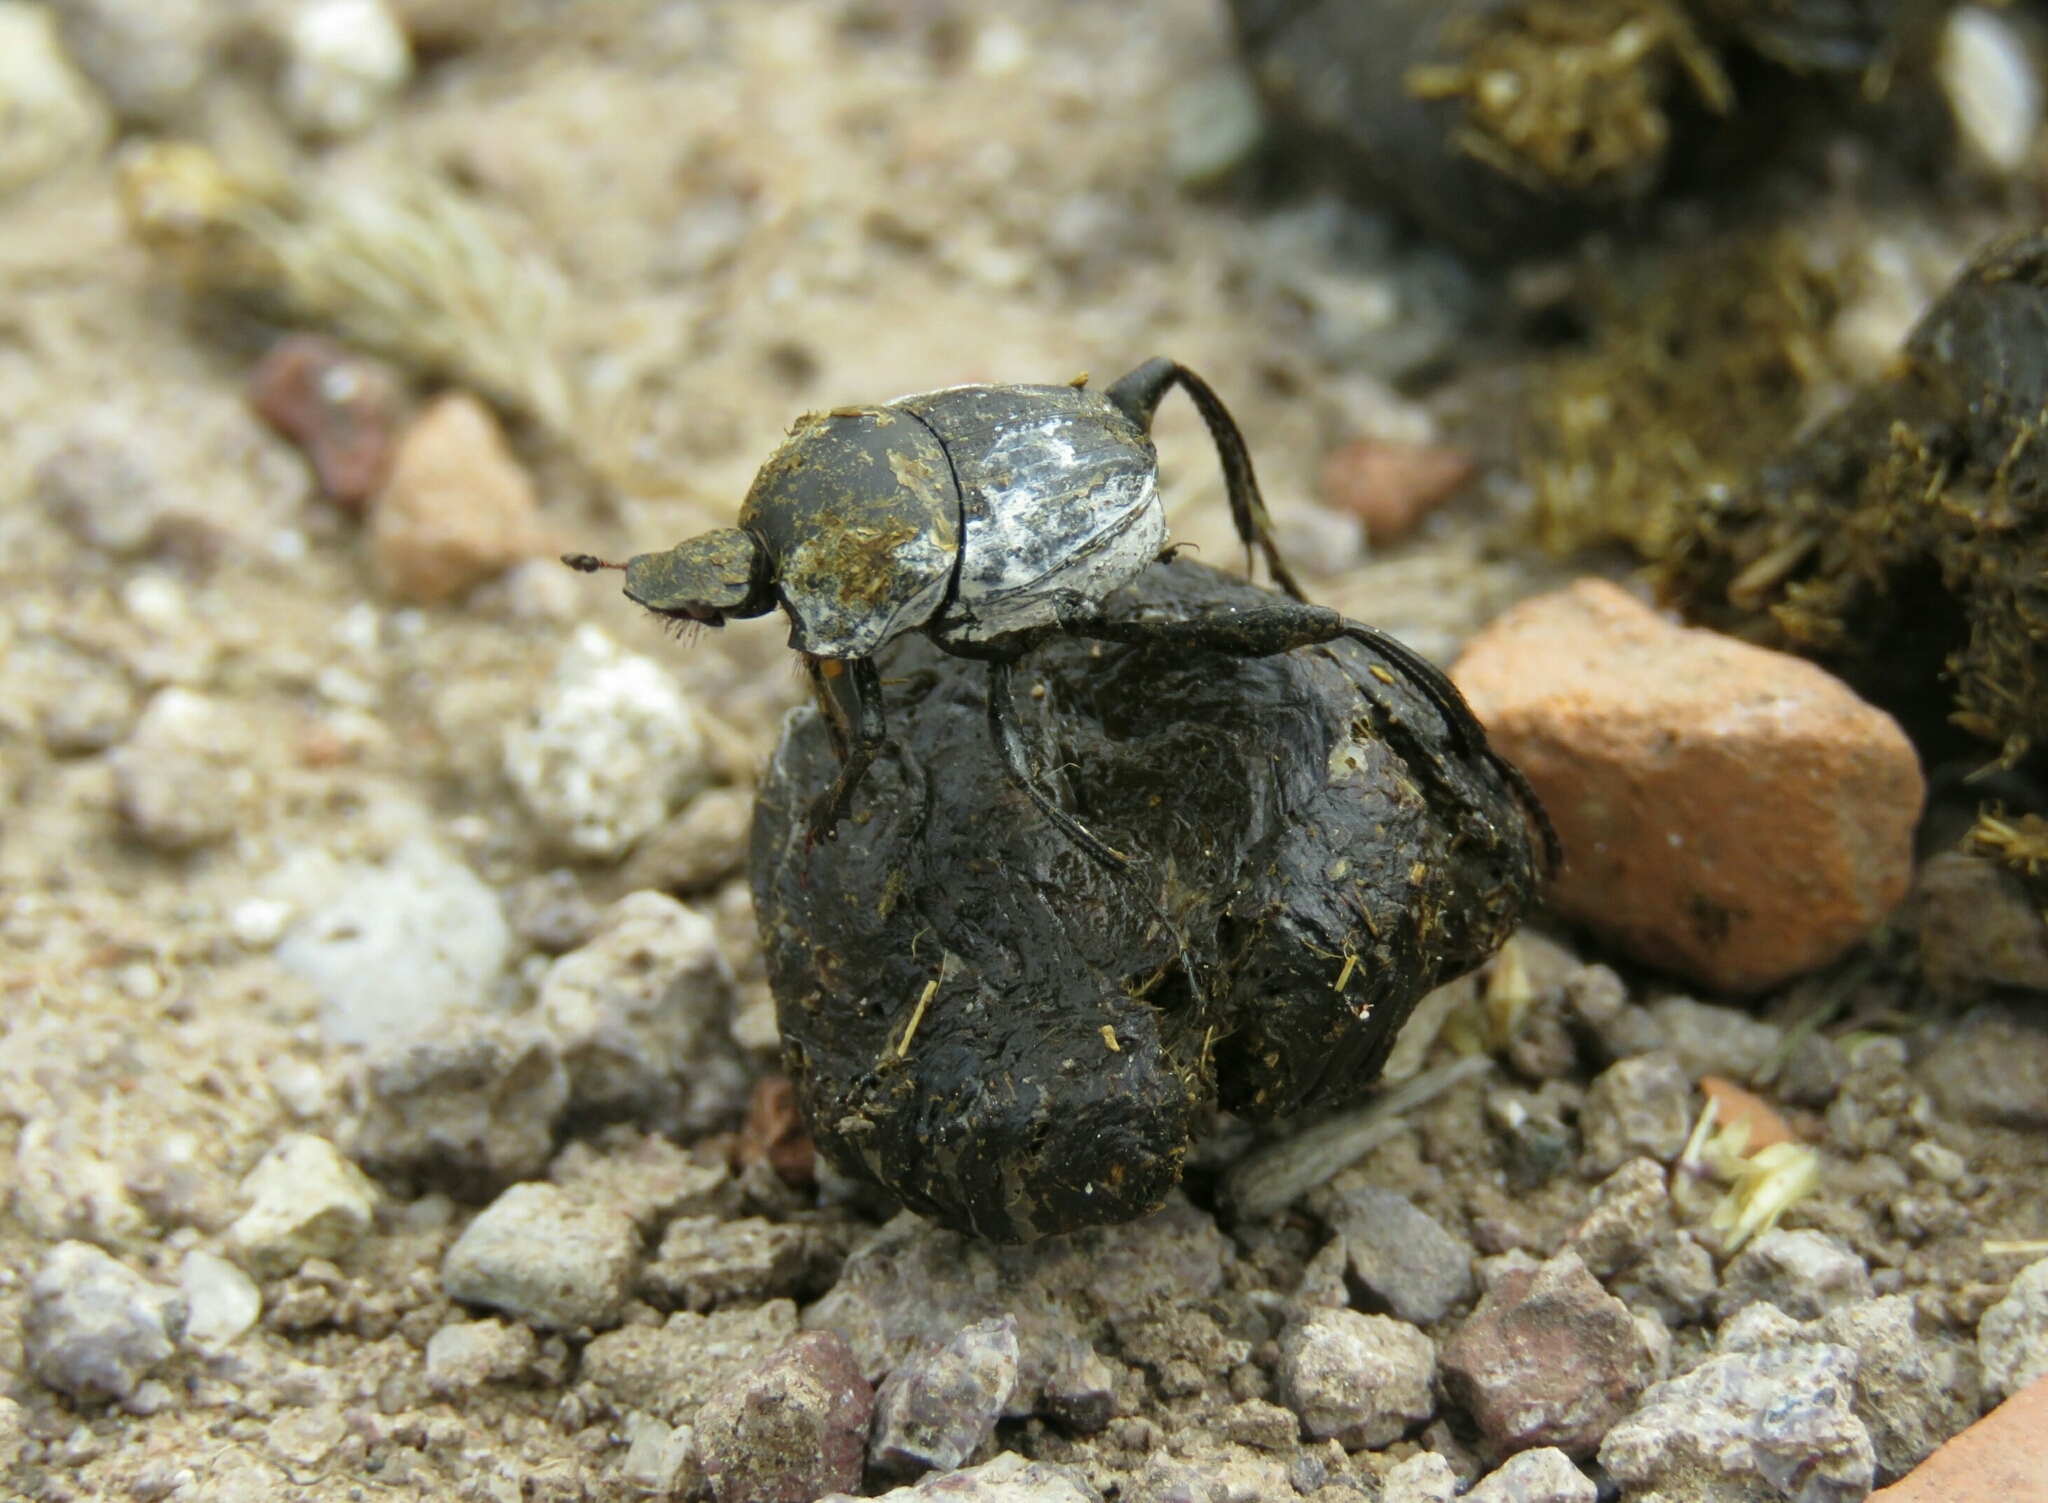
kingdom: Animalia
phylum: Arthropoda
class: Insecta
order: Coleoptera
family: Scarabaeidae
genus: Sisyphus
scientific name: Sisyphus schaefferi
